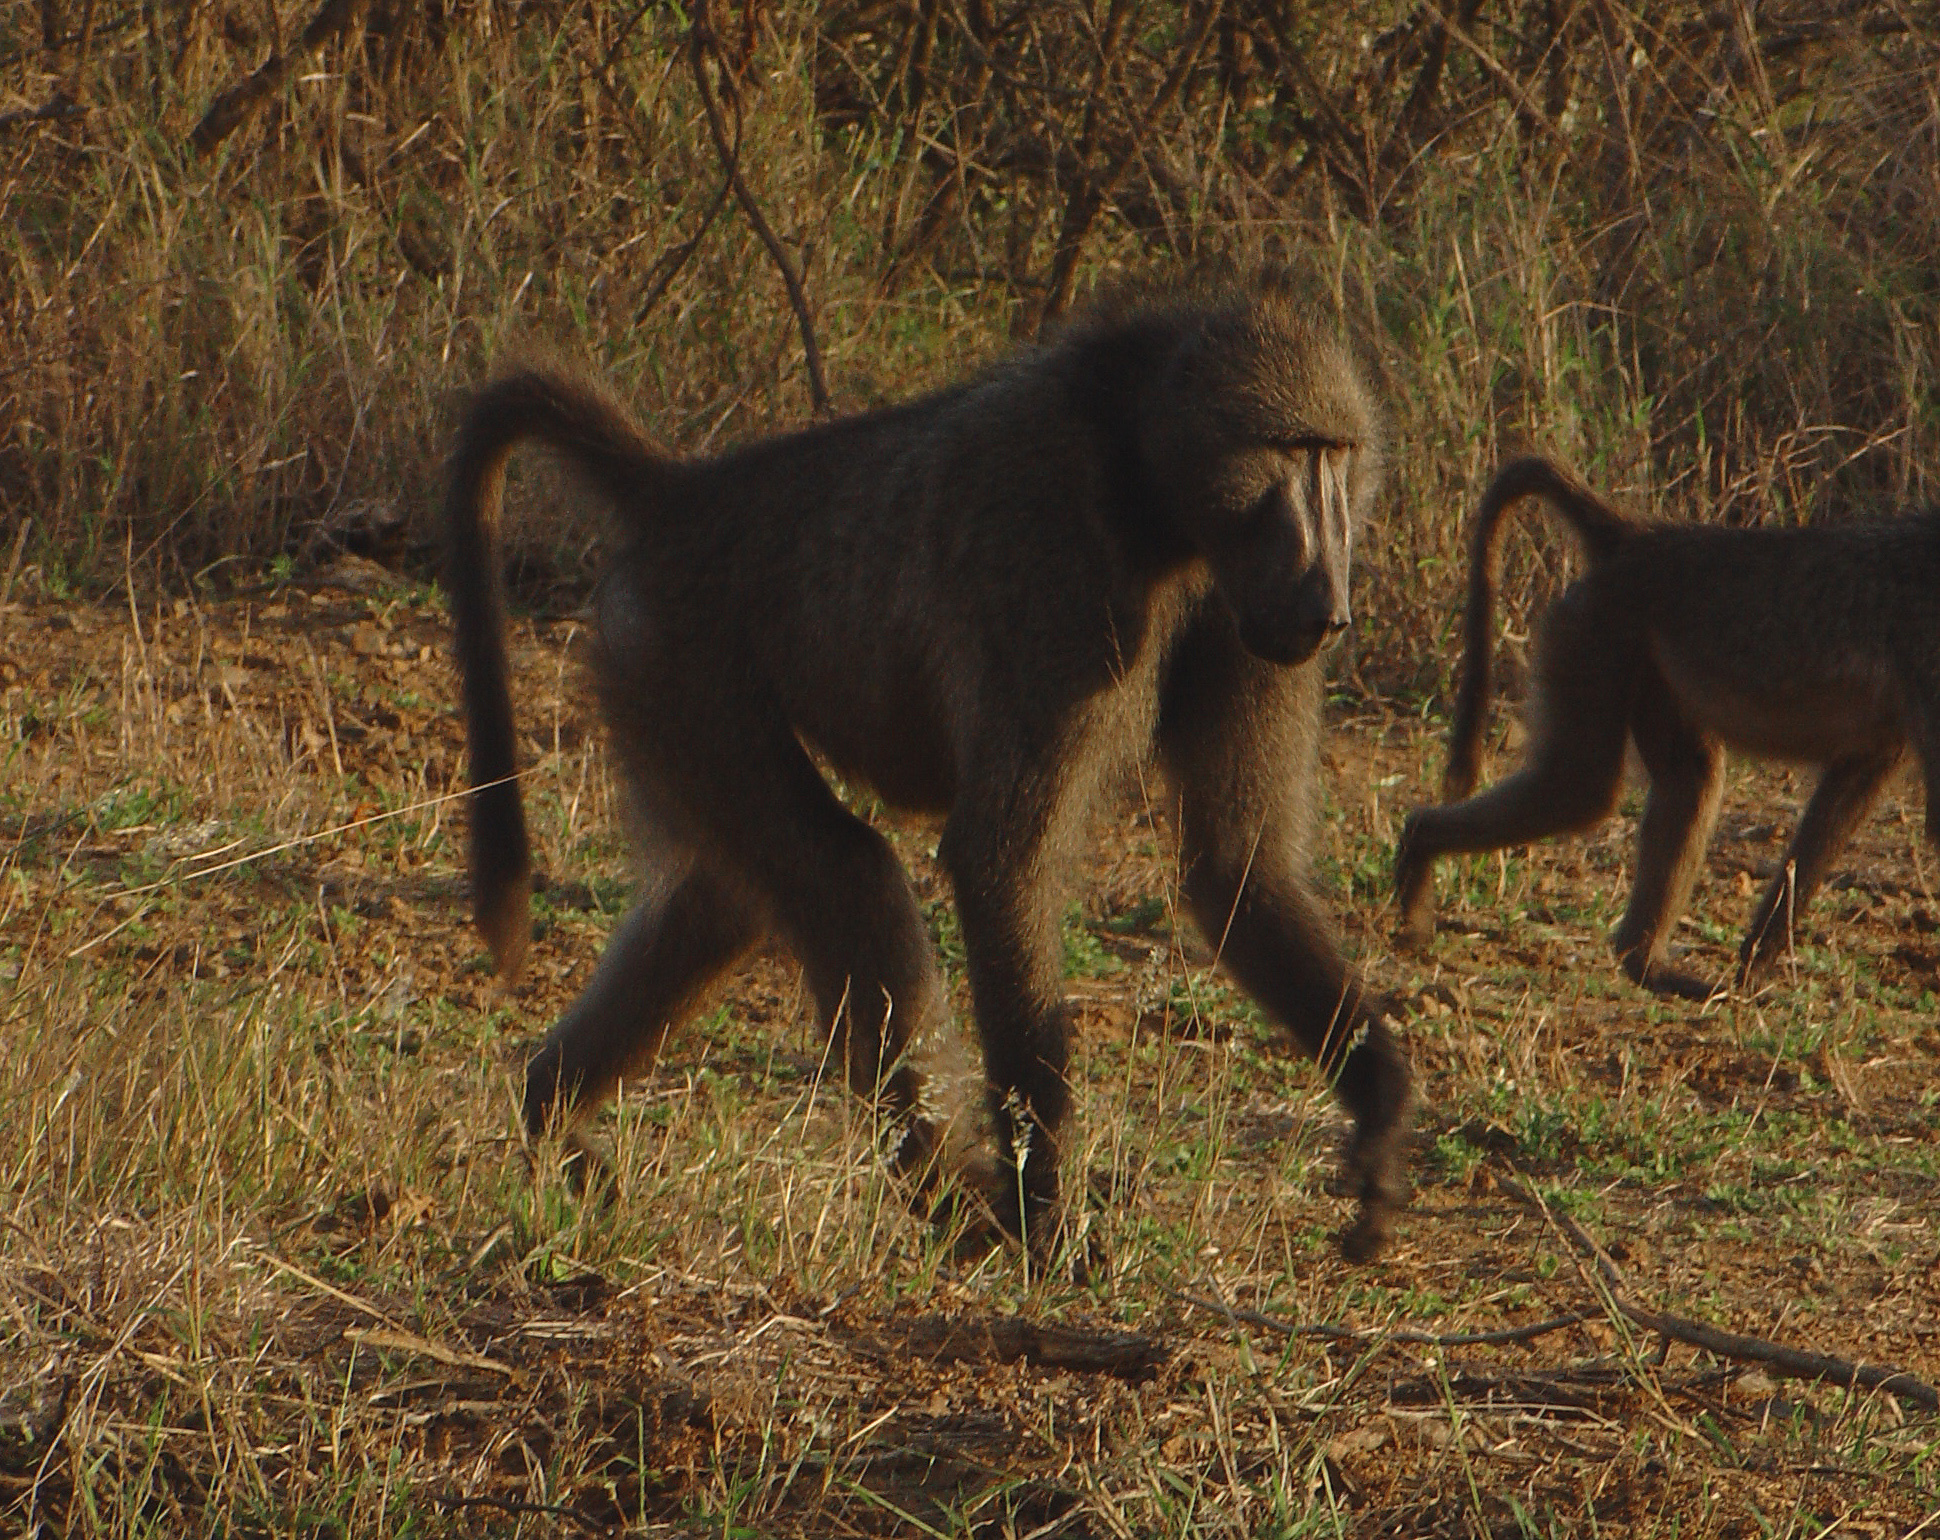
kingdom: Animalia
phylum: Chordata
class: Mammalia
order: Primates
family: Cercopithecidae
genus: Papio
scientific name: Papio ursinus
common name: Chacma baboon
